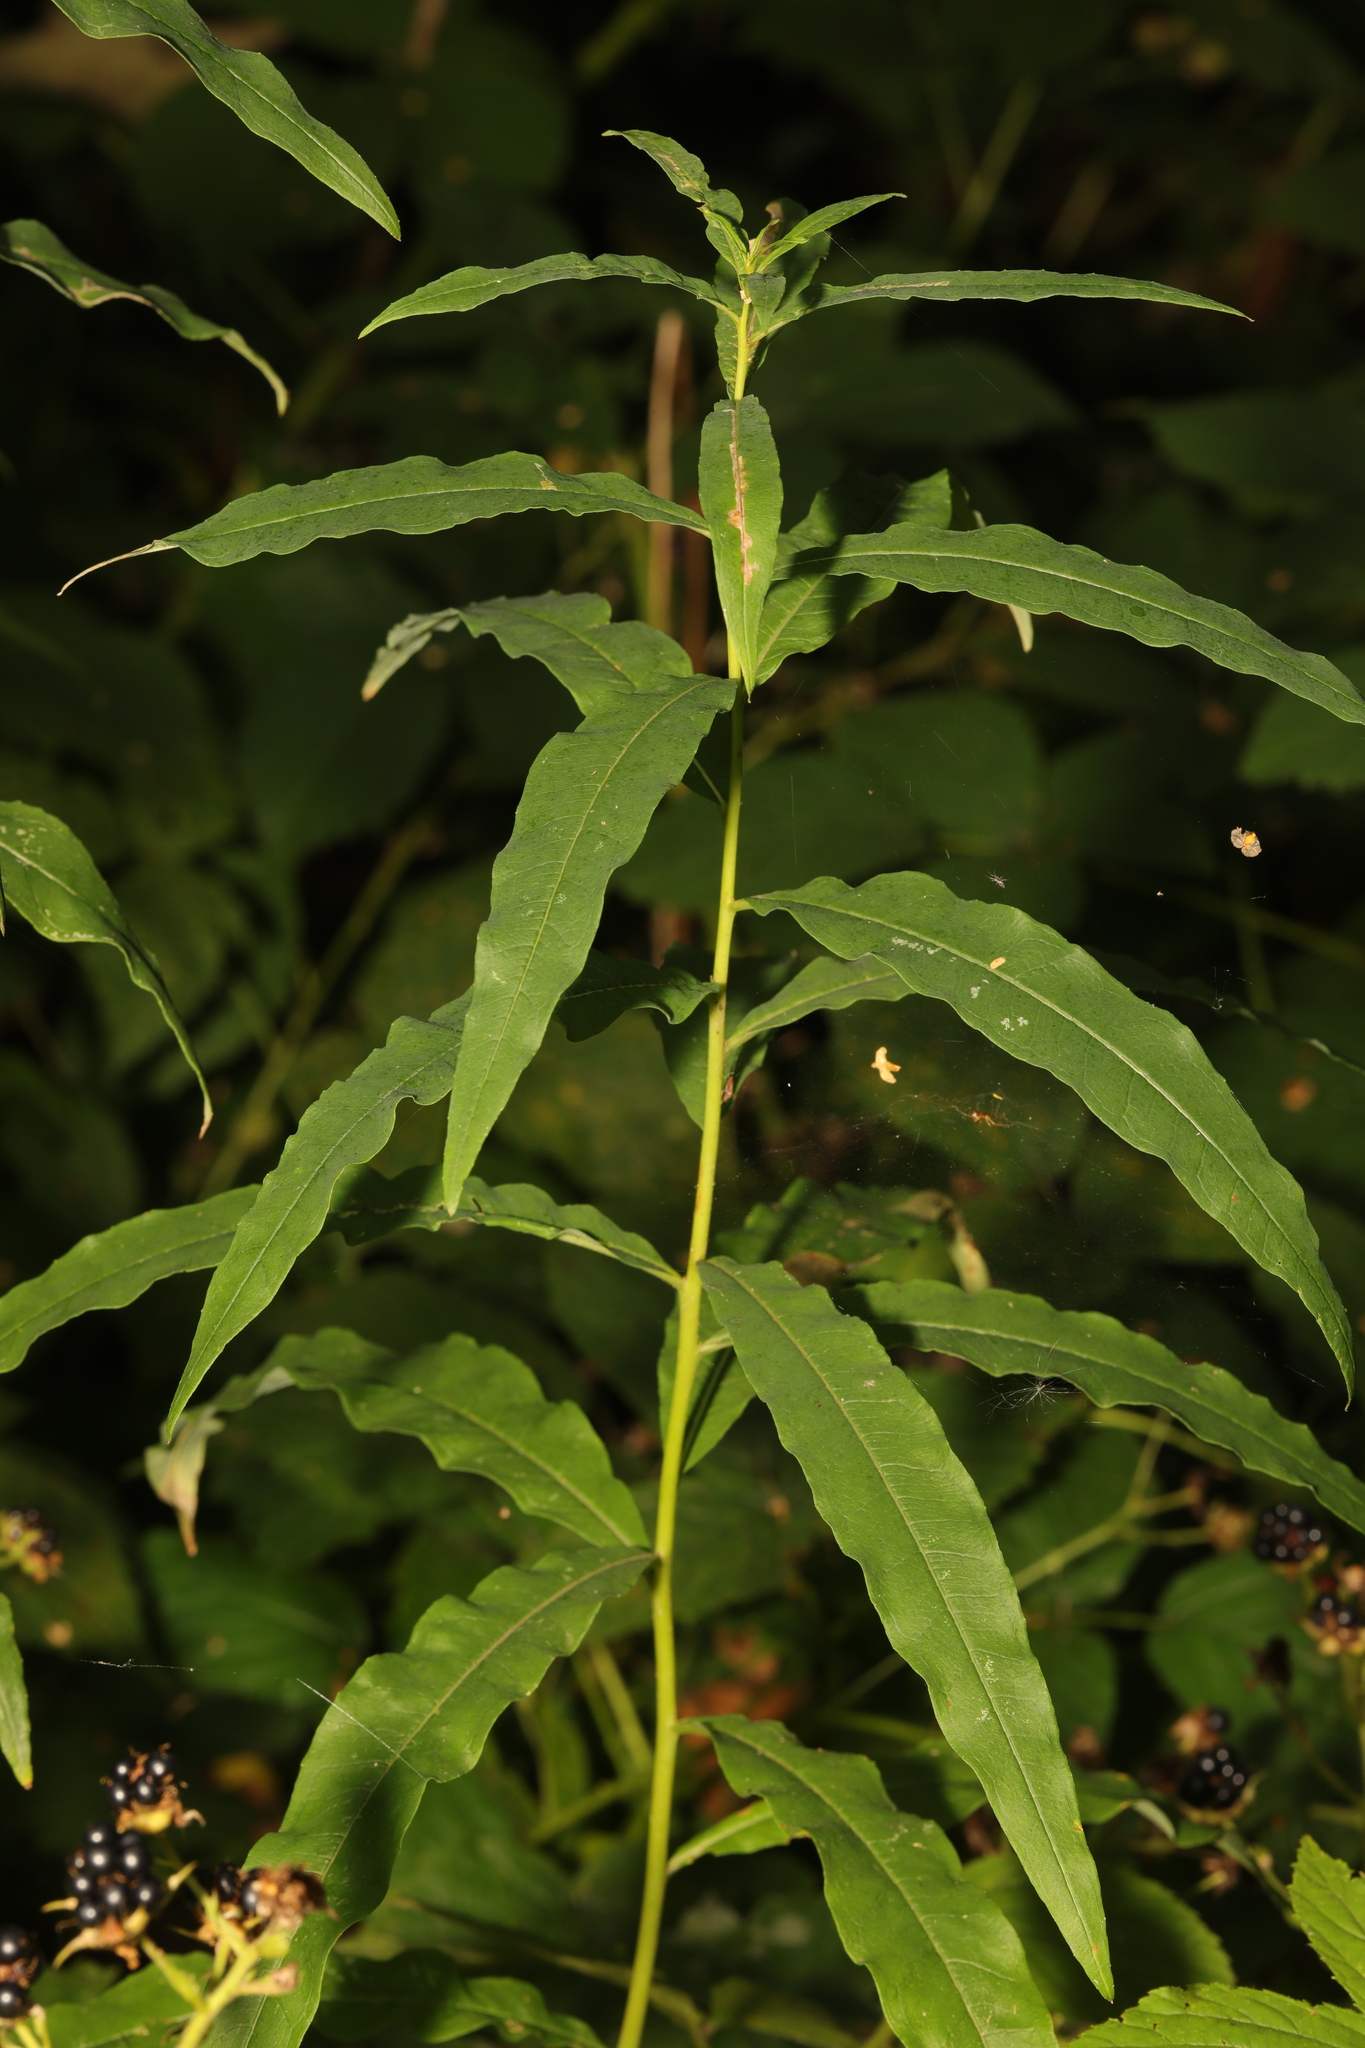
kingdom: Plantae
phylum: Tracheophyta
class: Magnoliopsida
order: Myrtales
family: Onagraceae
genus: Chamaenerion
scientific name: Chamaenerion angustifolium
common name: Fireweed
